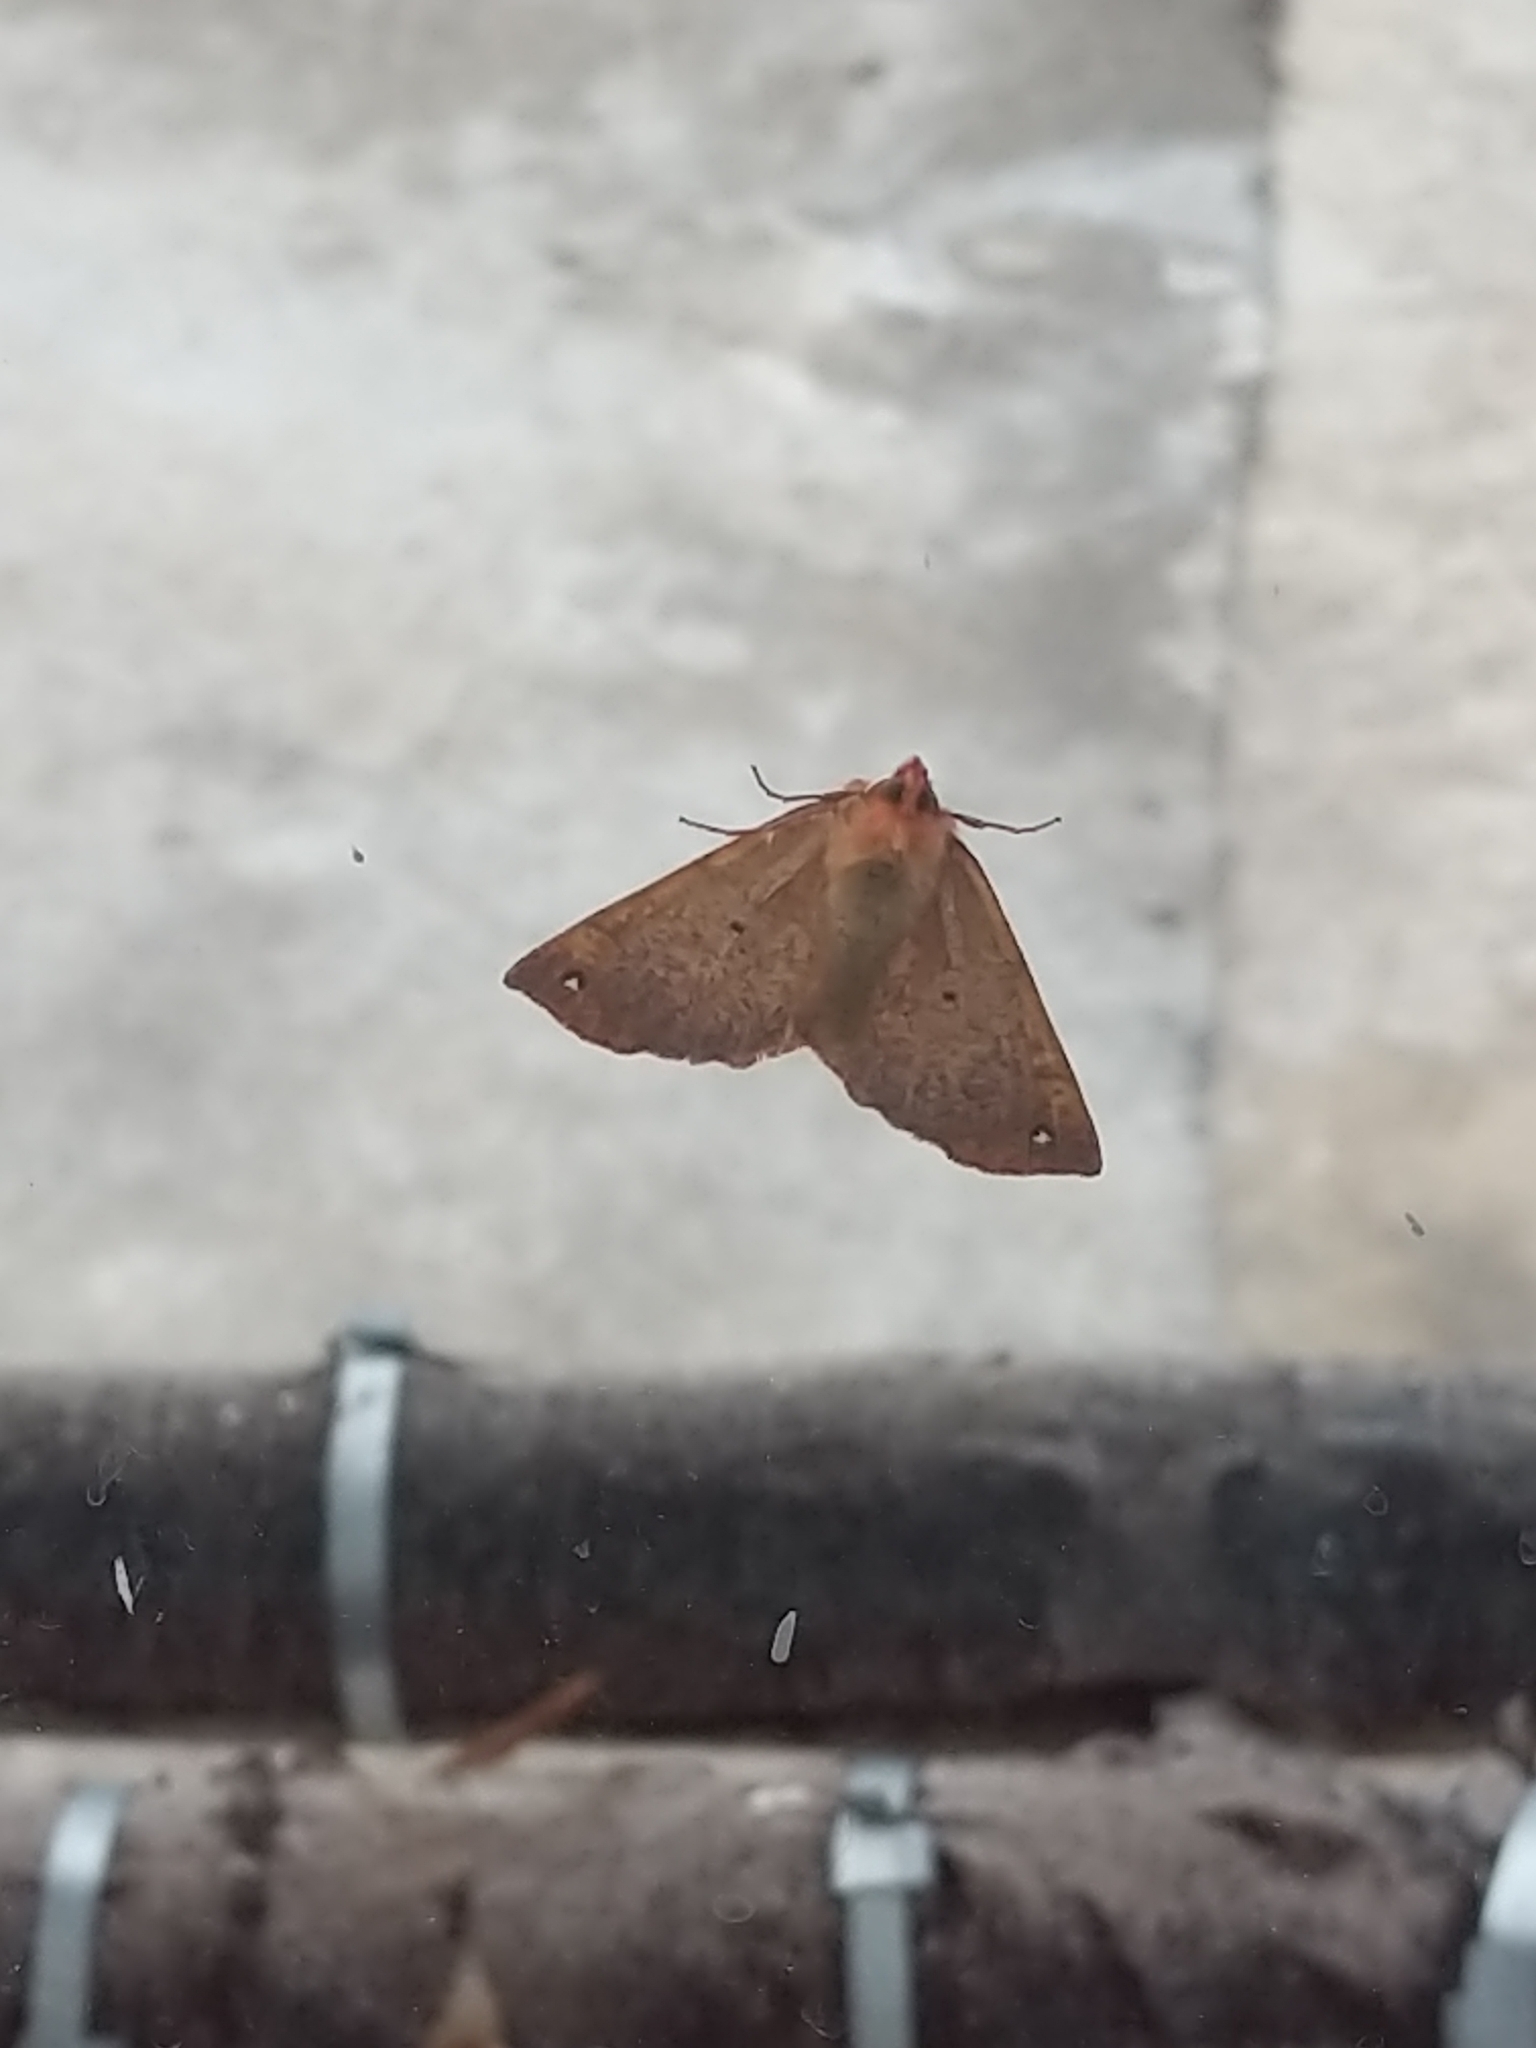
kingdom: Animalia
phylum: Arthropoda
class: Insecta
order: Lepidoptera
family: Geometridae
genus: Colotois
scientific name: Colotois pennaria
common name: Feathered thorn
